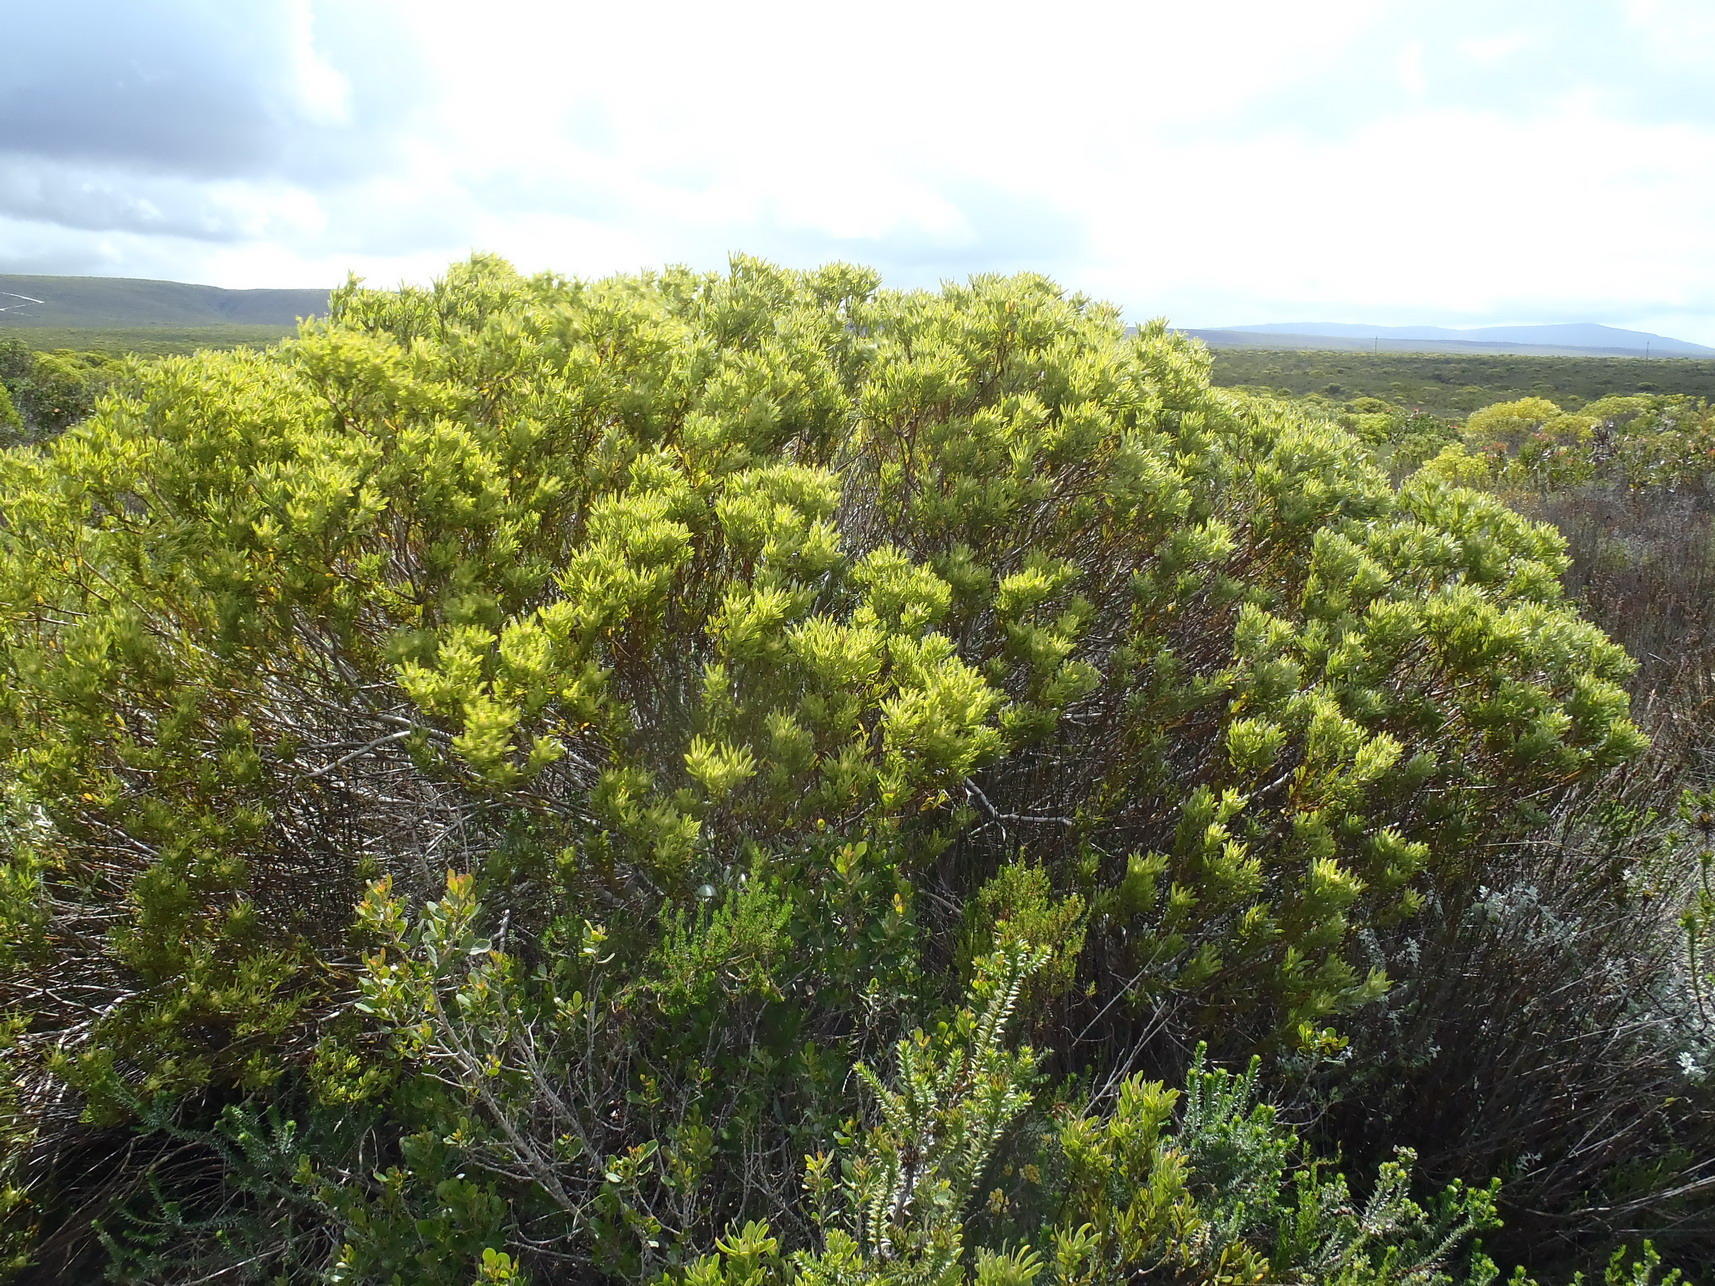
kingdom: Plantae
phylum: Tracheophyta
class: Magnoliopsida
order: Proteales
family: Proteaceae
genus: Leucadendron
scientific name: Leucadendron meridianum
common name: Limestone conebush
